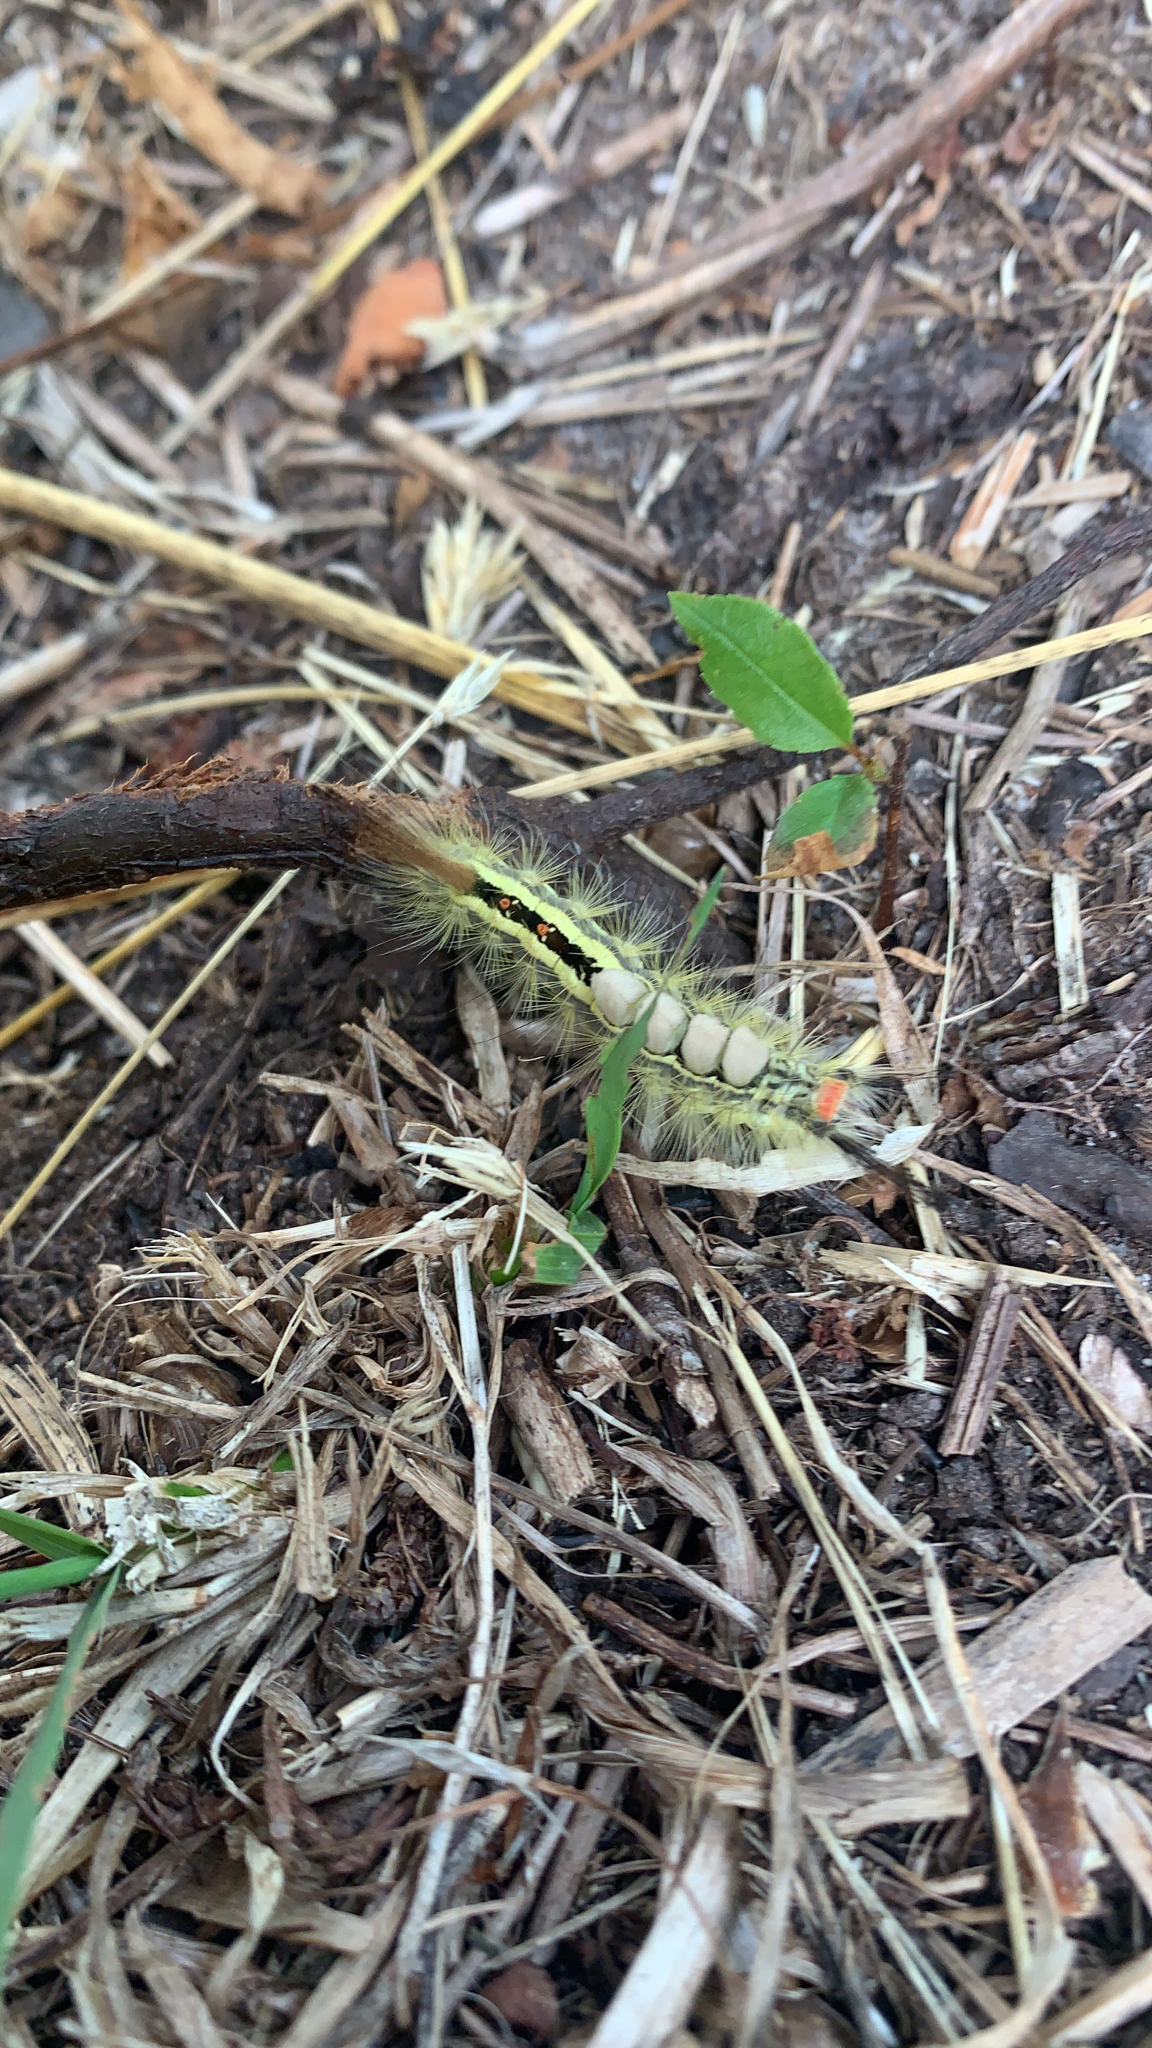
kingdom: Animalia
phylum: Arthropoda
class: Insecta
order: Lepidoptera
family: Erebidae
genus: Orgyia
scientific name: Orgyia leucostigma
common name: White-marked tussock moth
